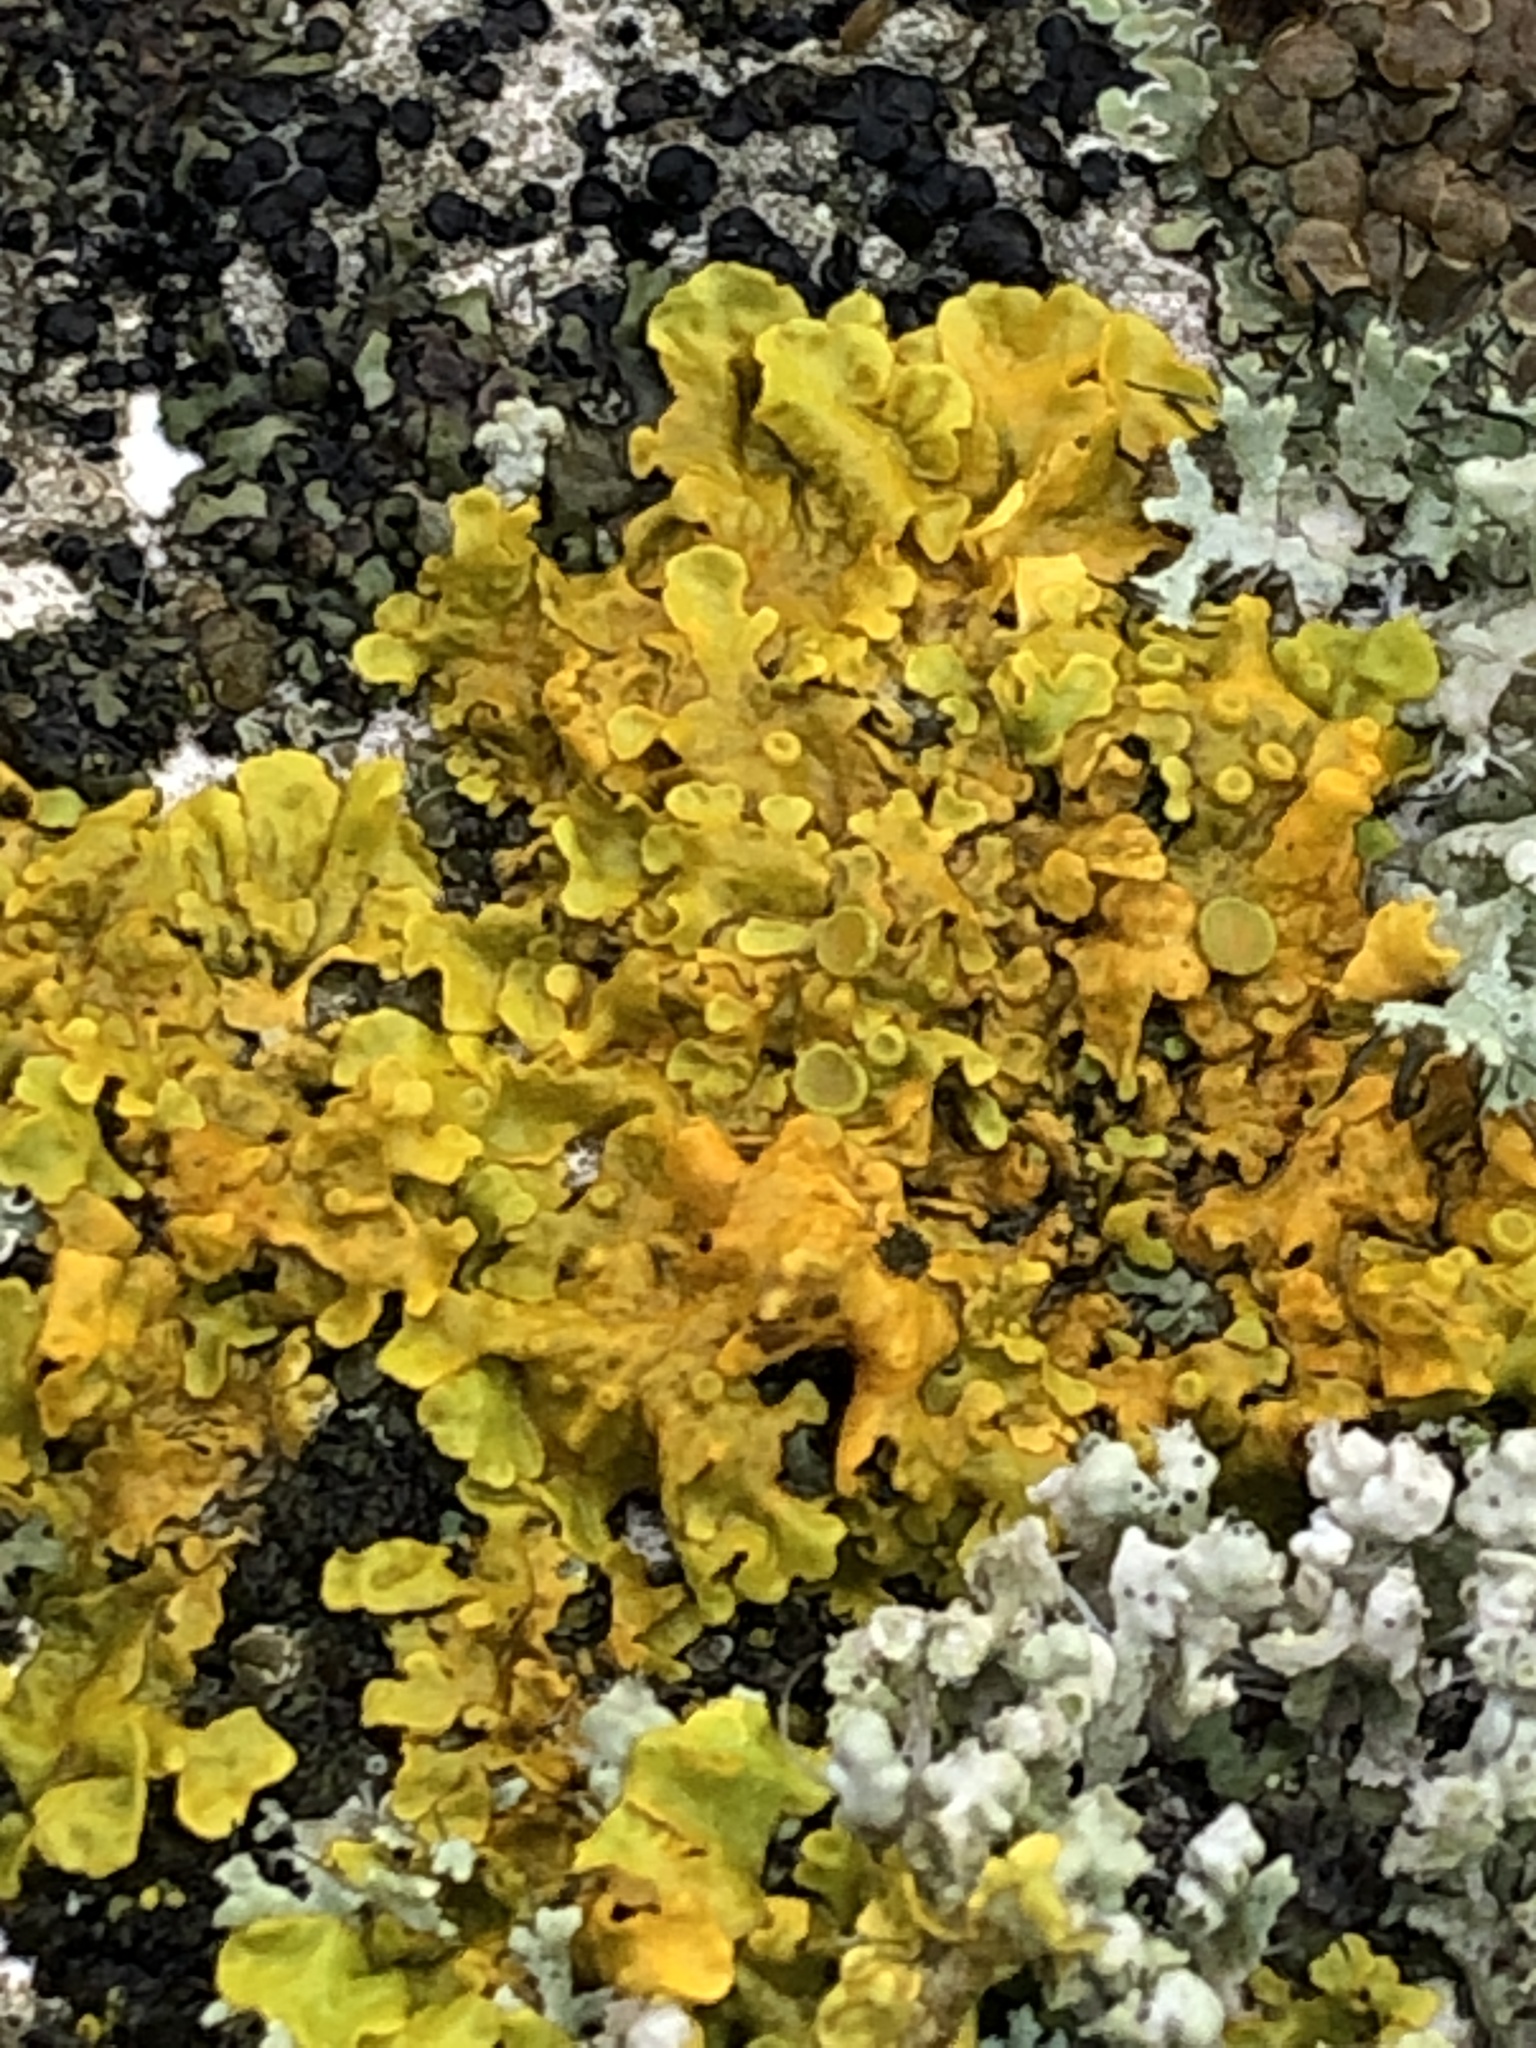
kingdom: Fungi
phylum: Ascomycota
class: Lecanoromycetes
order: Teloschistales
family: Teloschistaceae
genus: Xanthoria
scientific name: Xanthoria parietina
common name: Common orange lichen
